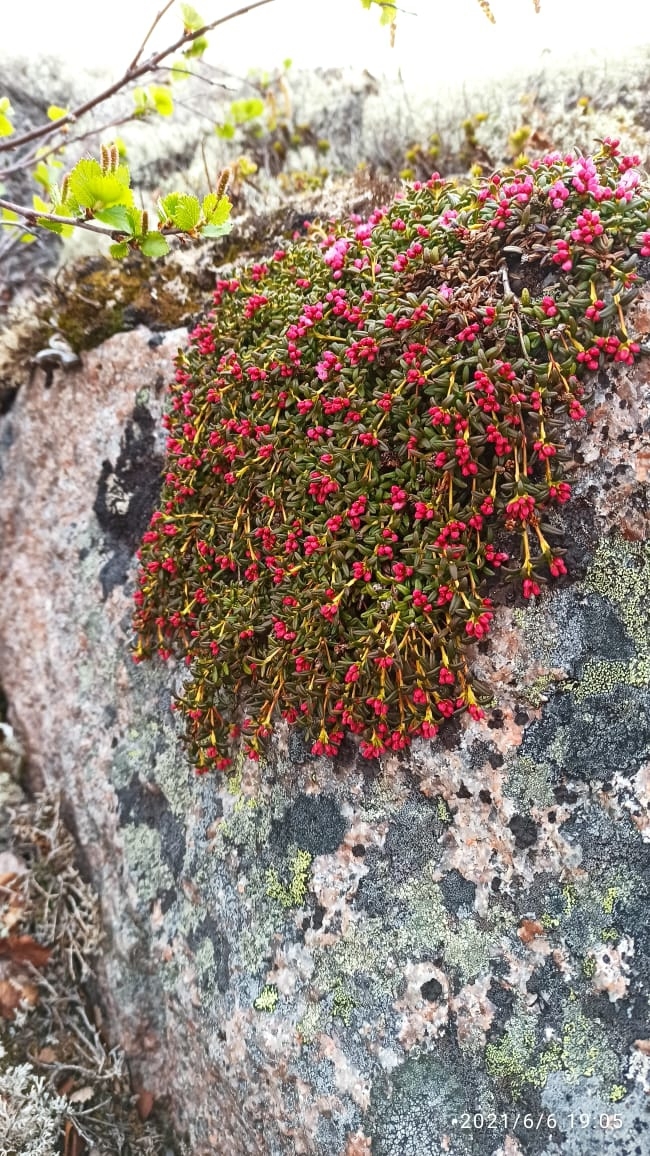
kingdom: Plantae
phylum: Tracheophyta
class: Magnoliopsida
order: Ericales
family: Ericaceae
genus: Kalmia
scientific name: Kalmia procumbens
